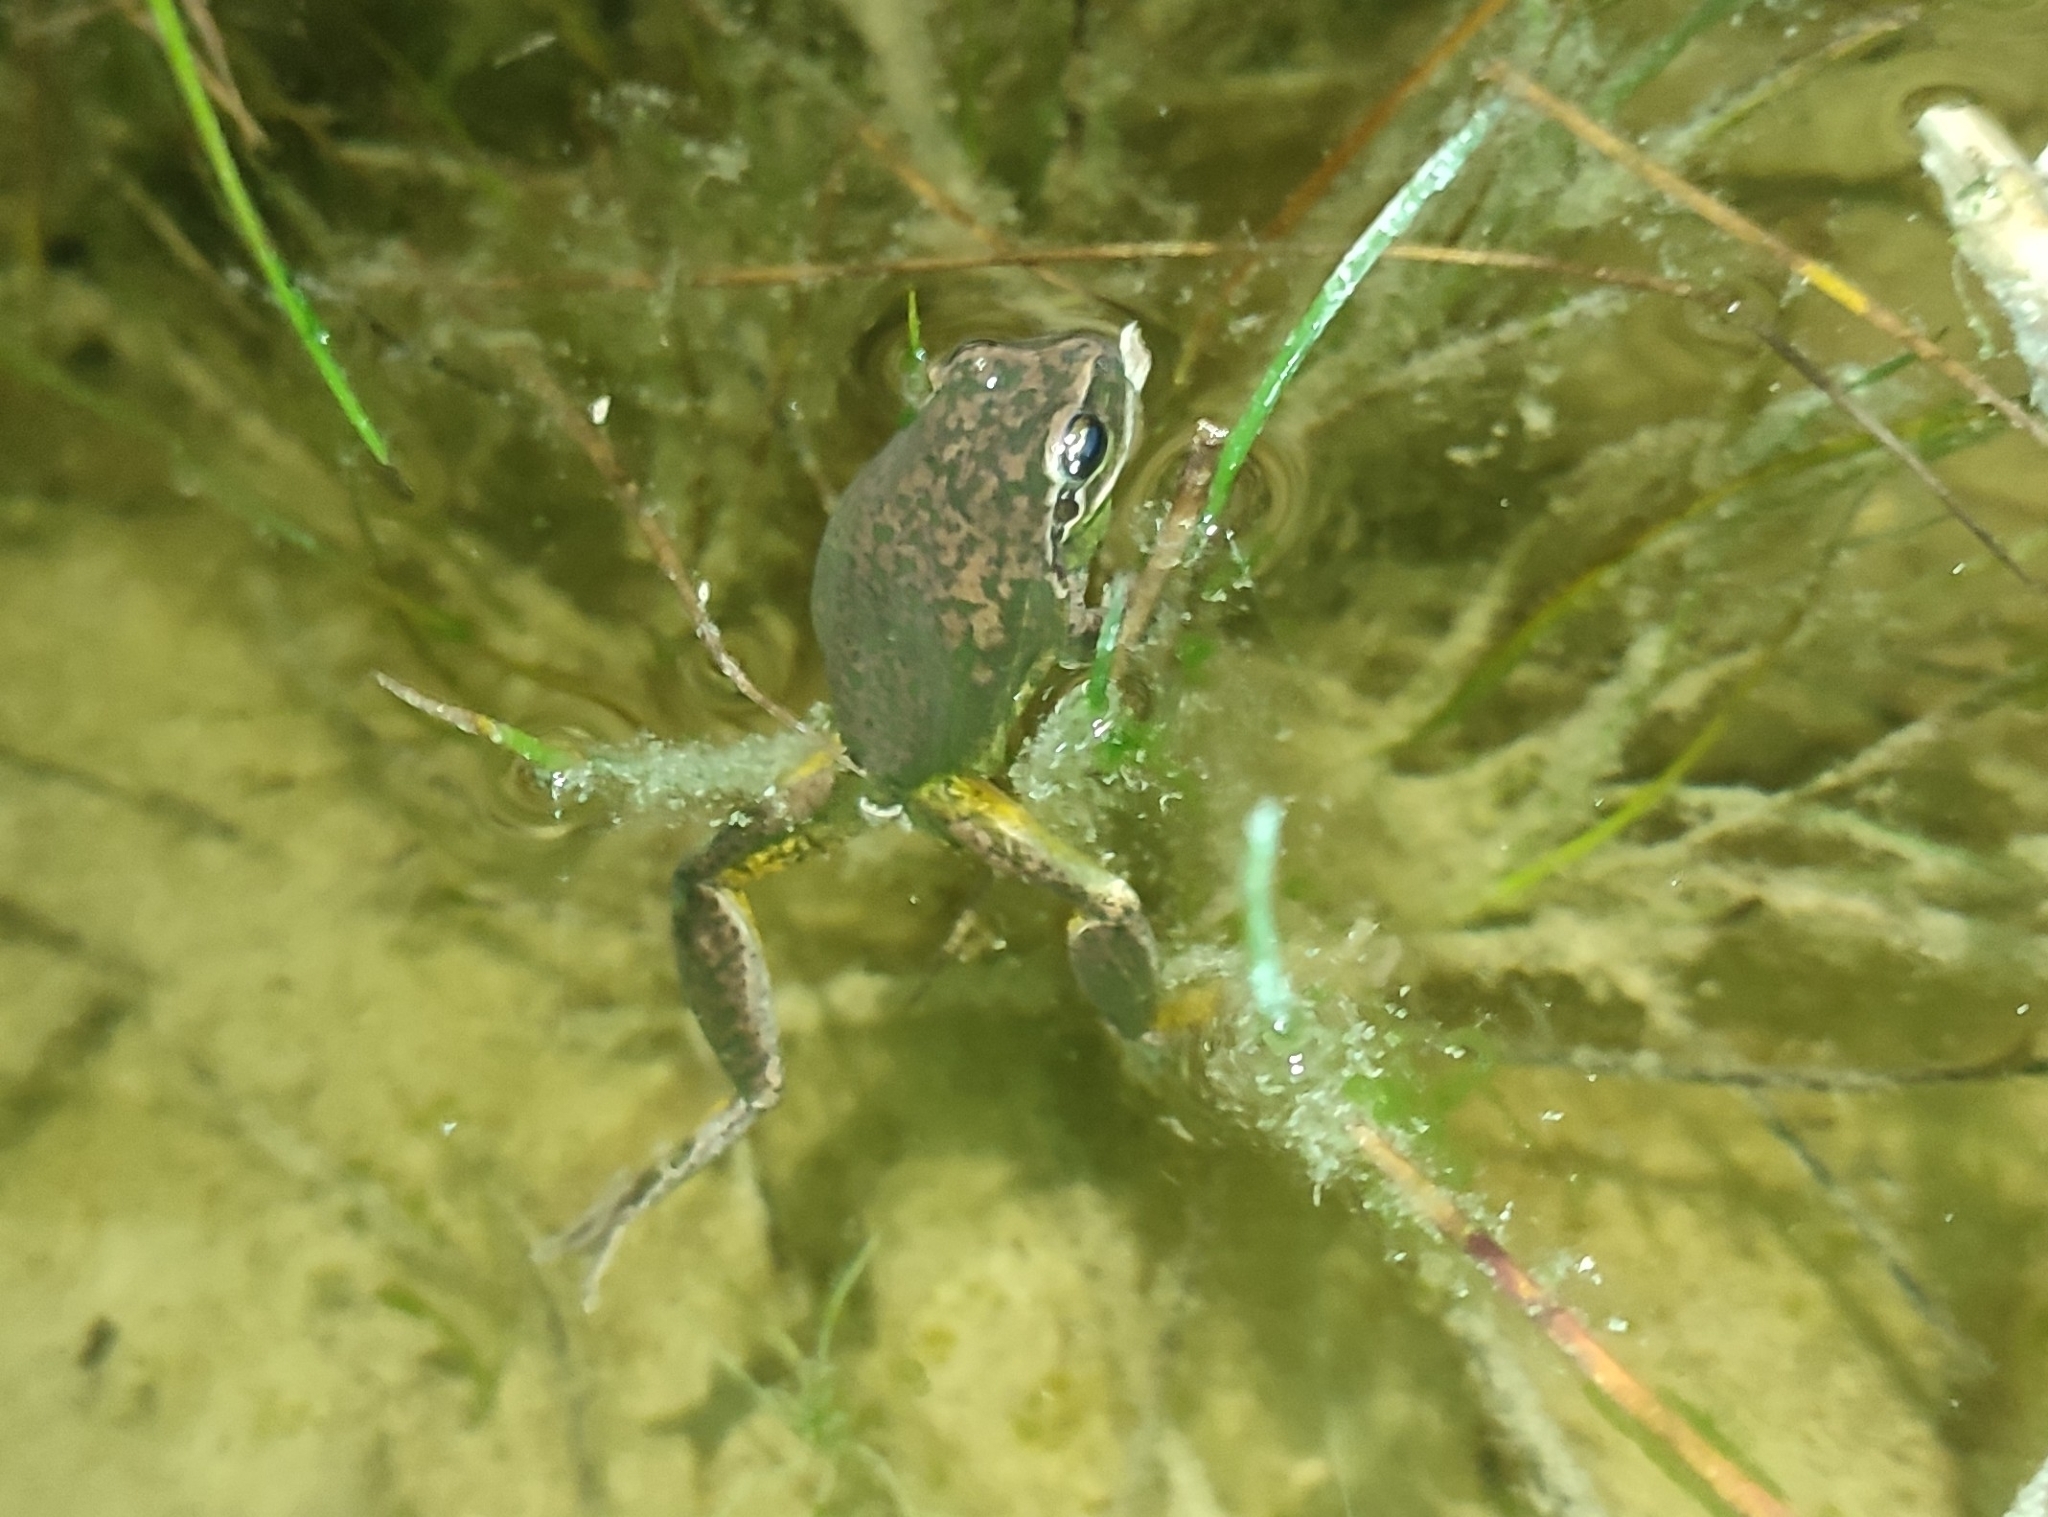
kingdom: Animalia
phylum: Chordata
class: Amphibia
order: Anura
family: Hylidae
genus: Hyla
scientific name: Hyla meridionalis
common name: Stripeless tree frog
